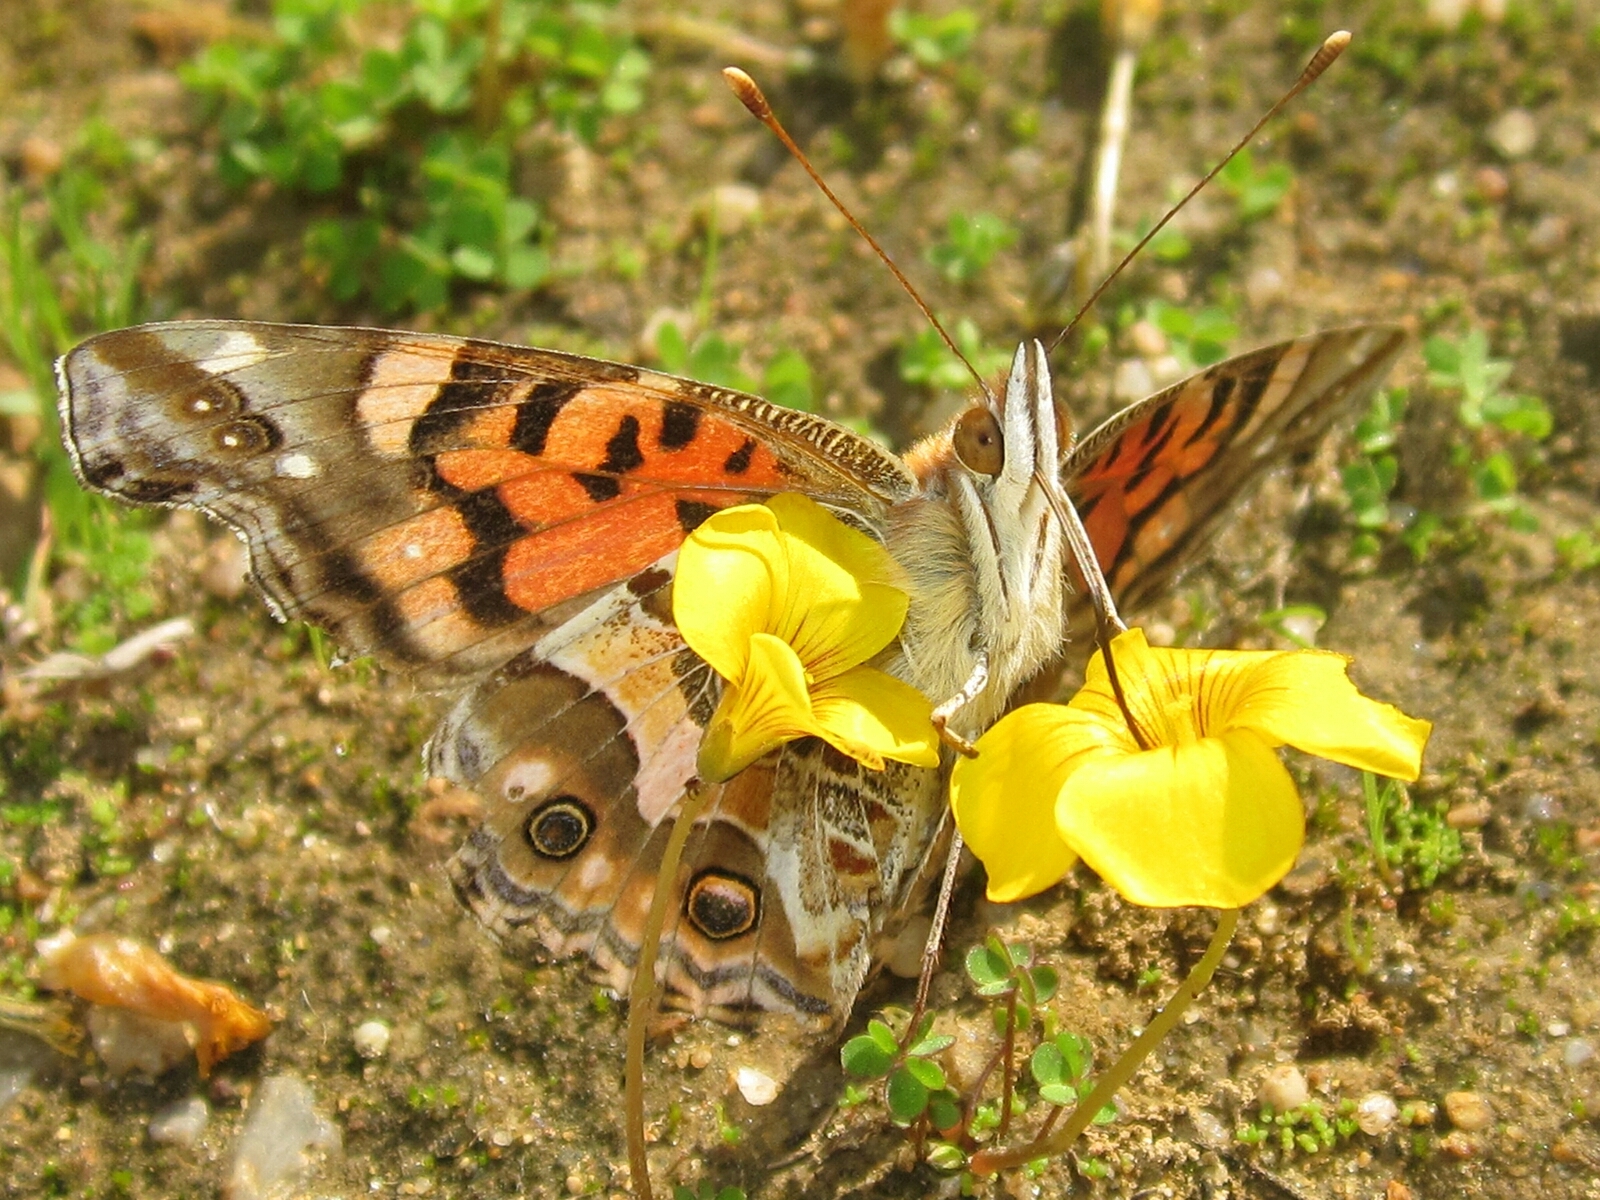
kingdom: Animalia
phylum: Arthropoda
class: Insecta
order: Lepidoptera
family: Nymphalidae
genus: Vanessa
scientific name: Vanessa terpsichore
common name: Chilean lady
